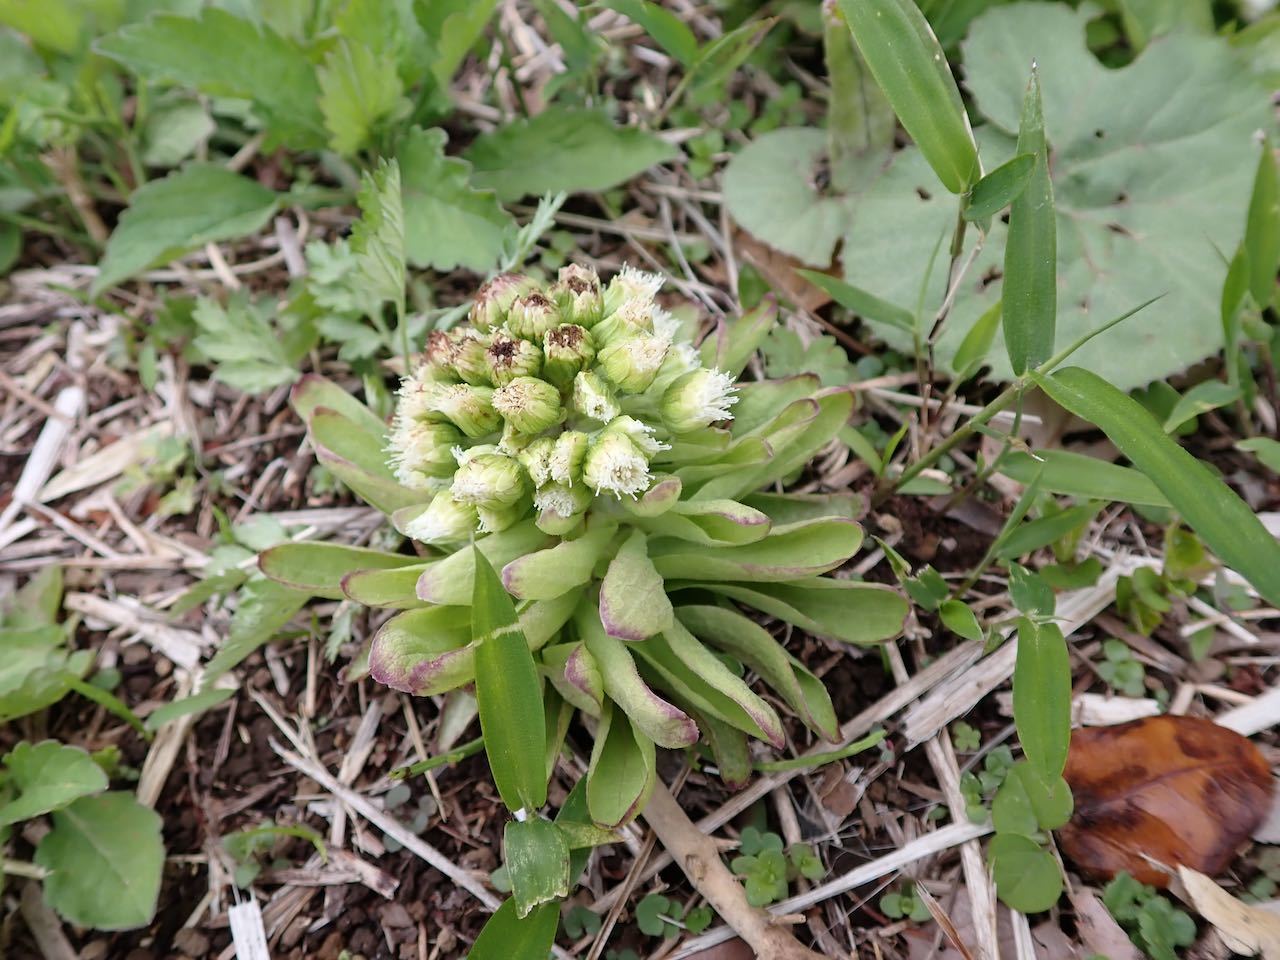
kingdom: Plantae
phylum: Tracheophyta
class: Magnoliopsida
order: Asterales
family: Asteraceae
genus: Petasites
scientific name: Petasites japonicus
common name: Giant butterbur
